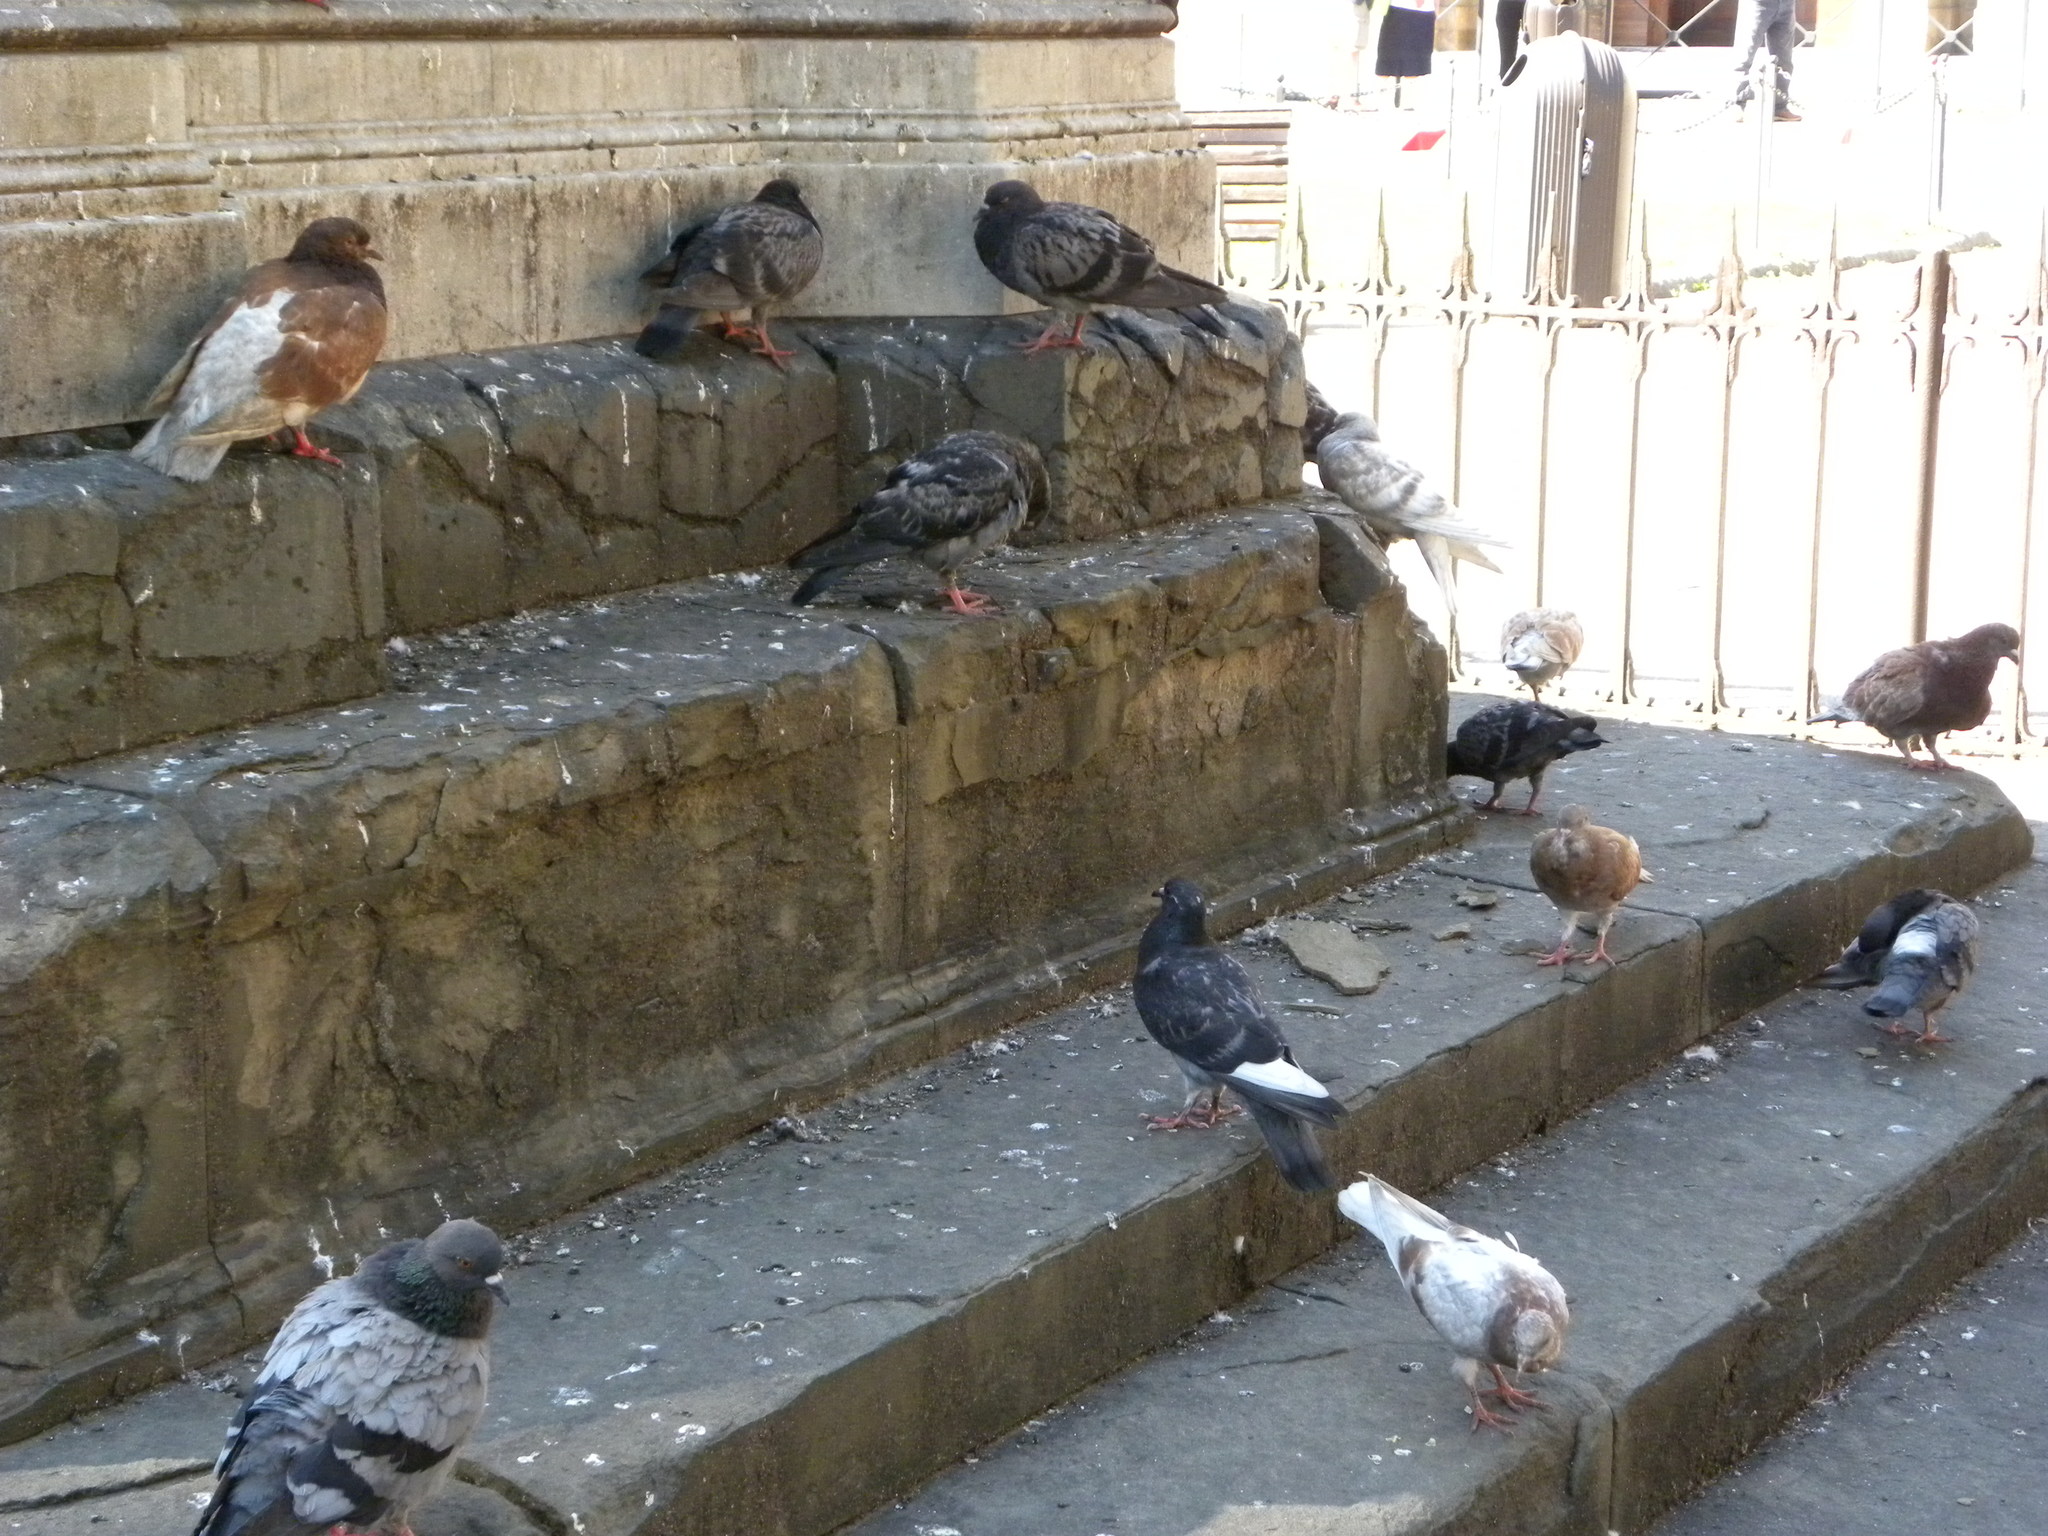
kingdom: Animalia
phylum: Chordata
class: Aves
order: Columbiformes
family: Columbidae
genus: Columba
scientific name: Columba livia
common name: Rock pigeon
